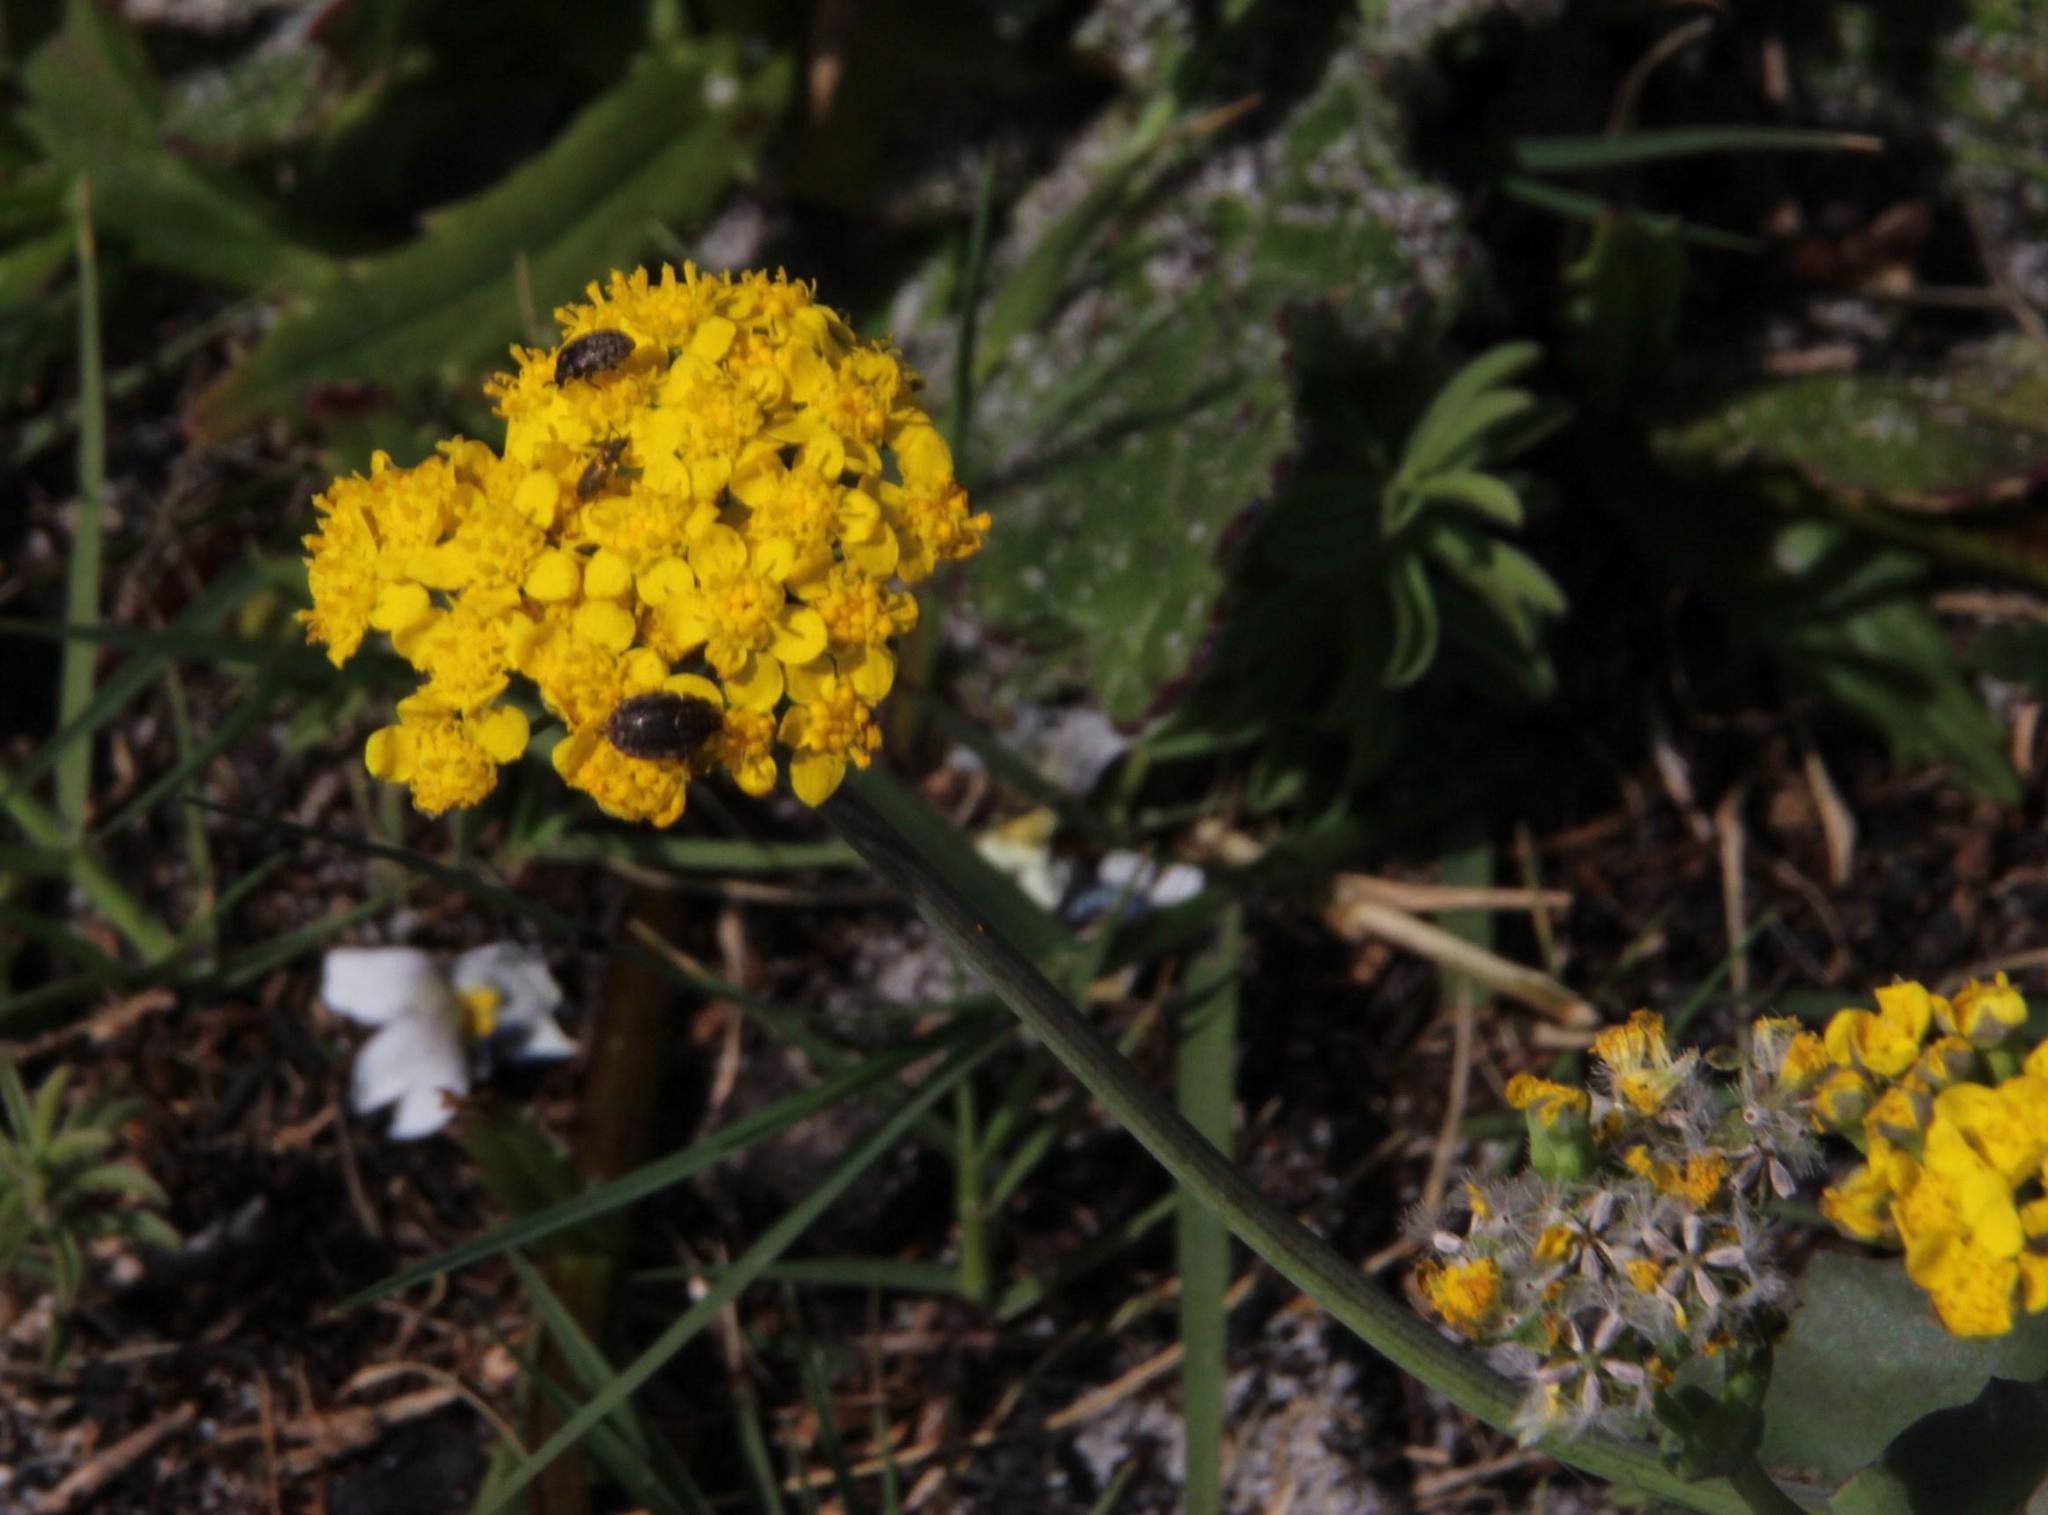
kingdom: Plantae
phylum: Tracheophyta
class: Magnoliopsida
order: Asterales
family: Asteraceae
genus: Gymnodiscus
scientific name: Gymnodiscus capillaris
